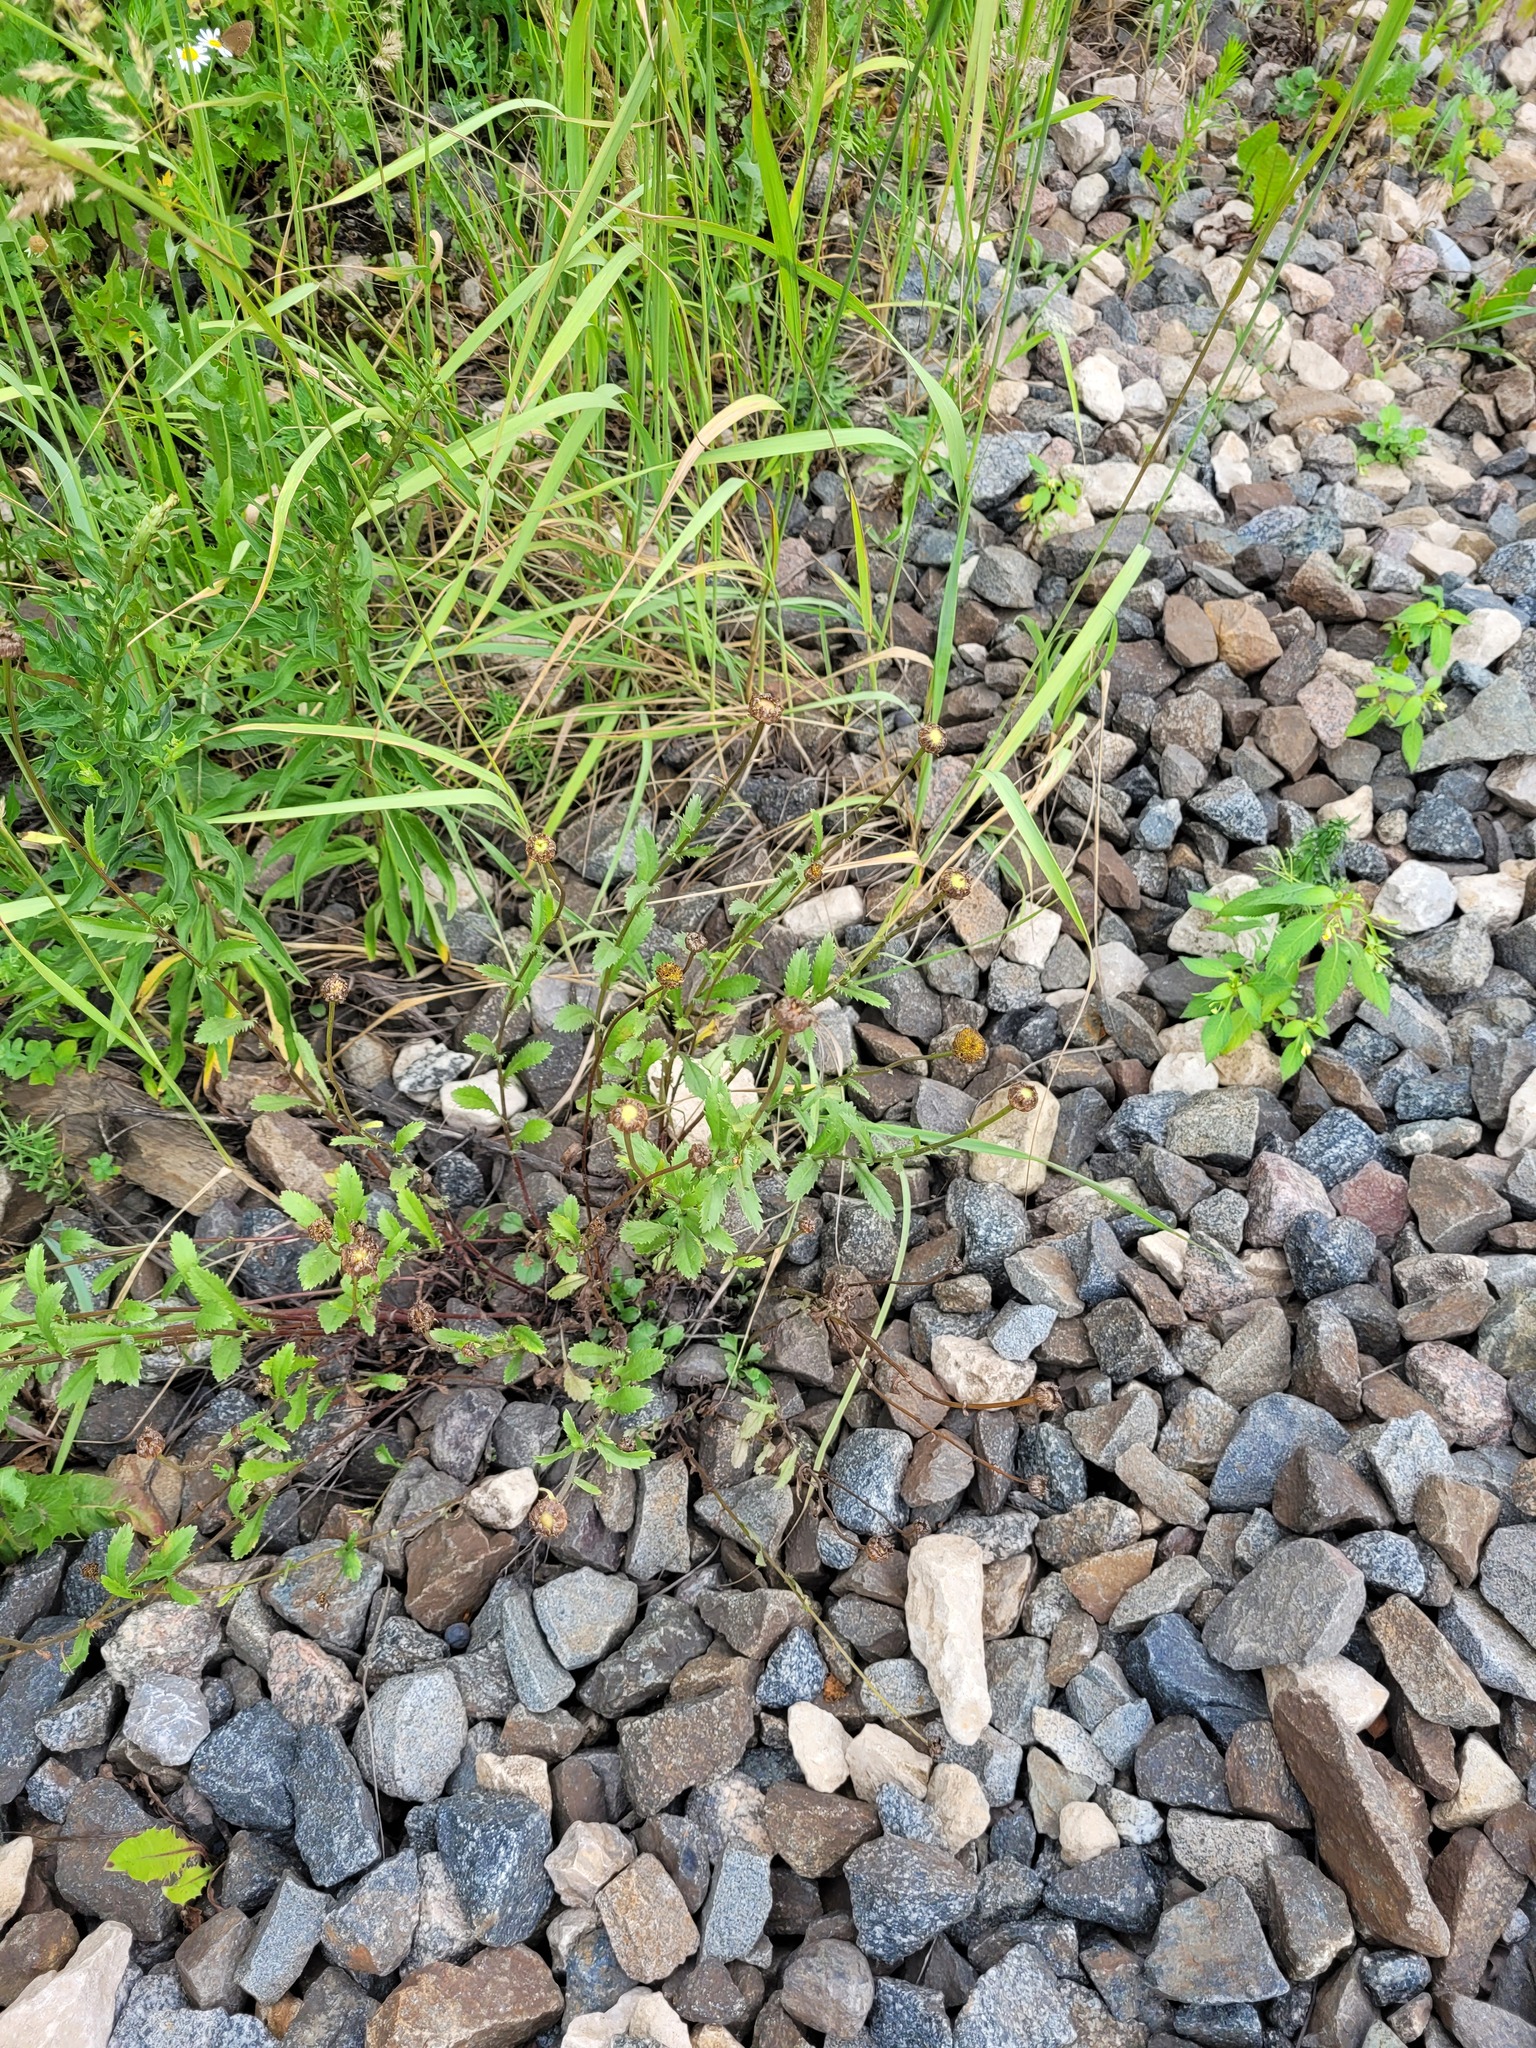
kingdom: Plantae
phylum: Tracheophyta
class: Magnoliopsida
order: Asterales
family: Asteraceae
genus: Leucanthemum
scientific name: Leucanthemum vulgare
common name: Oxeye daisy
